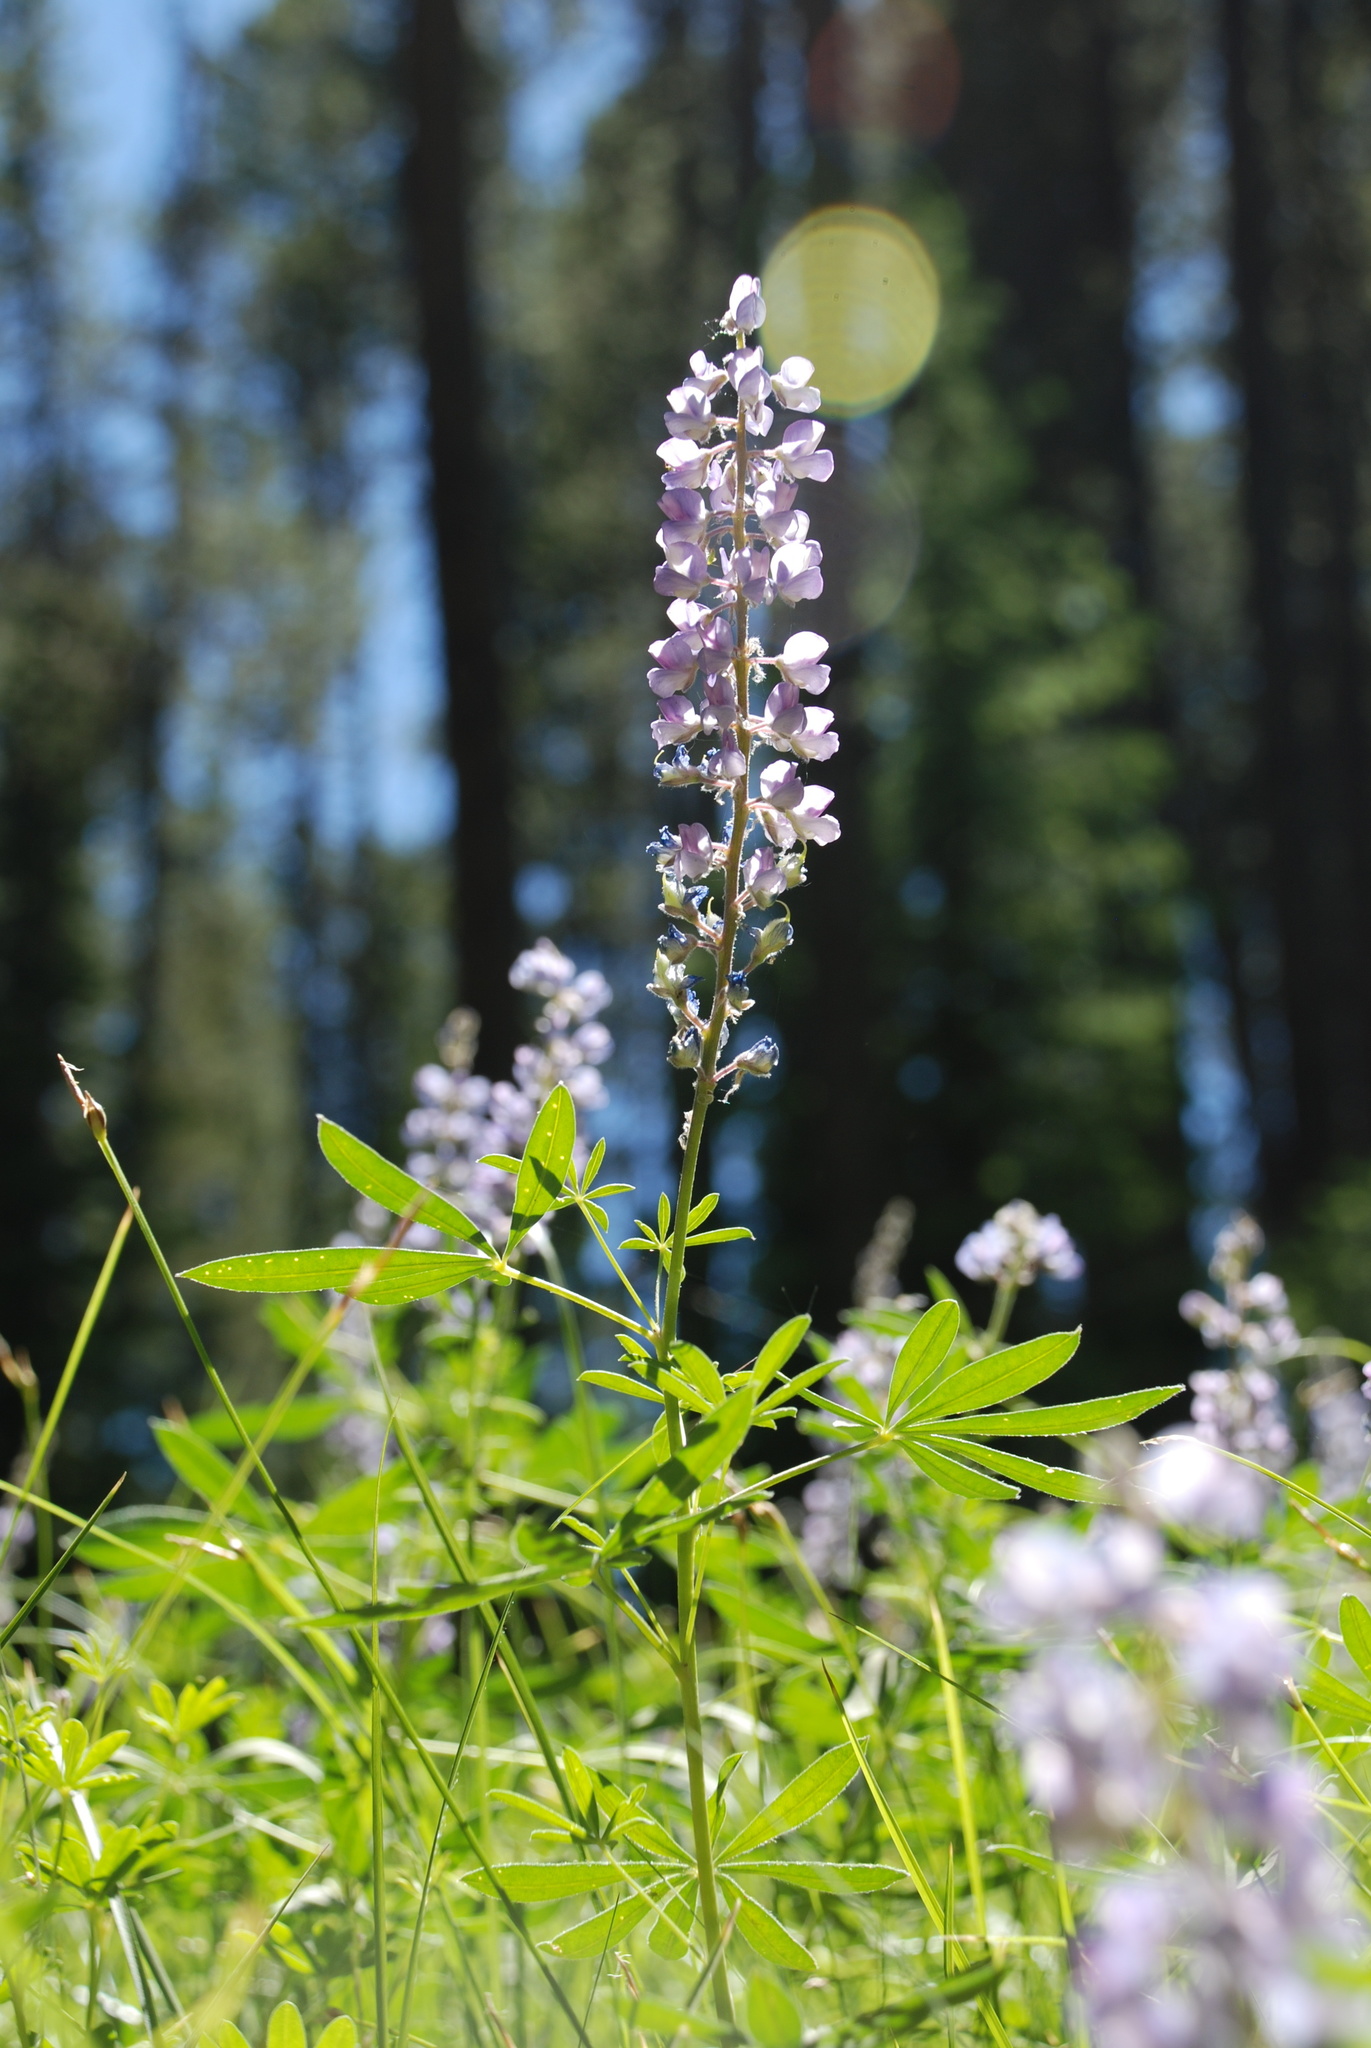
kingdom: Plantae
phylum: Tracheophyta
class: Magnoliopsida
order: Fabales
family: Fabaceae
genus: Lupinus
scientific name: Lupinus argenteus
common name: Silvery lupine
